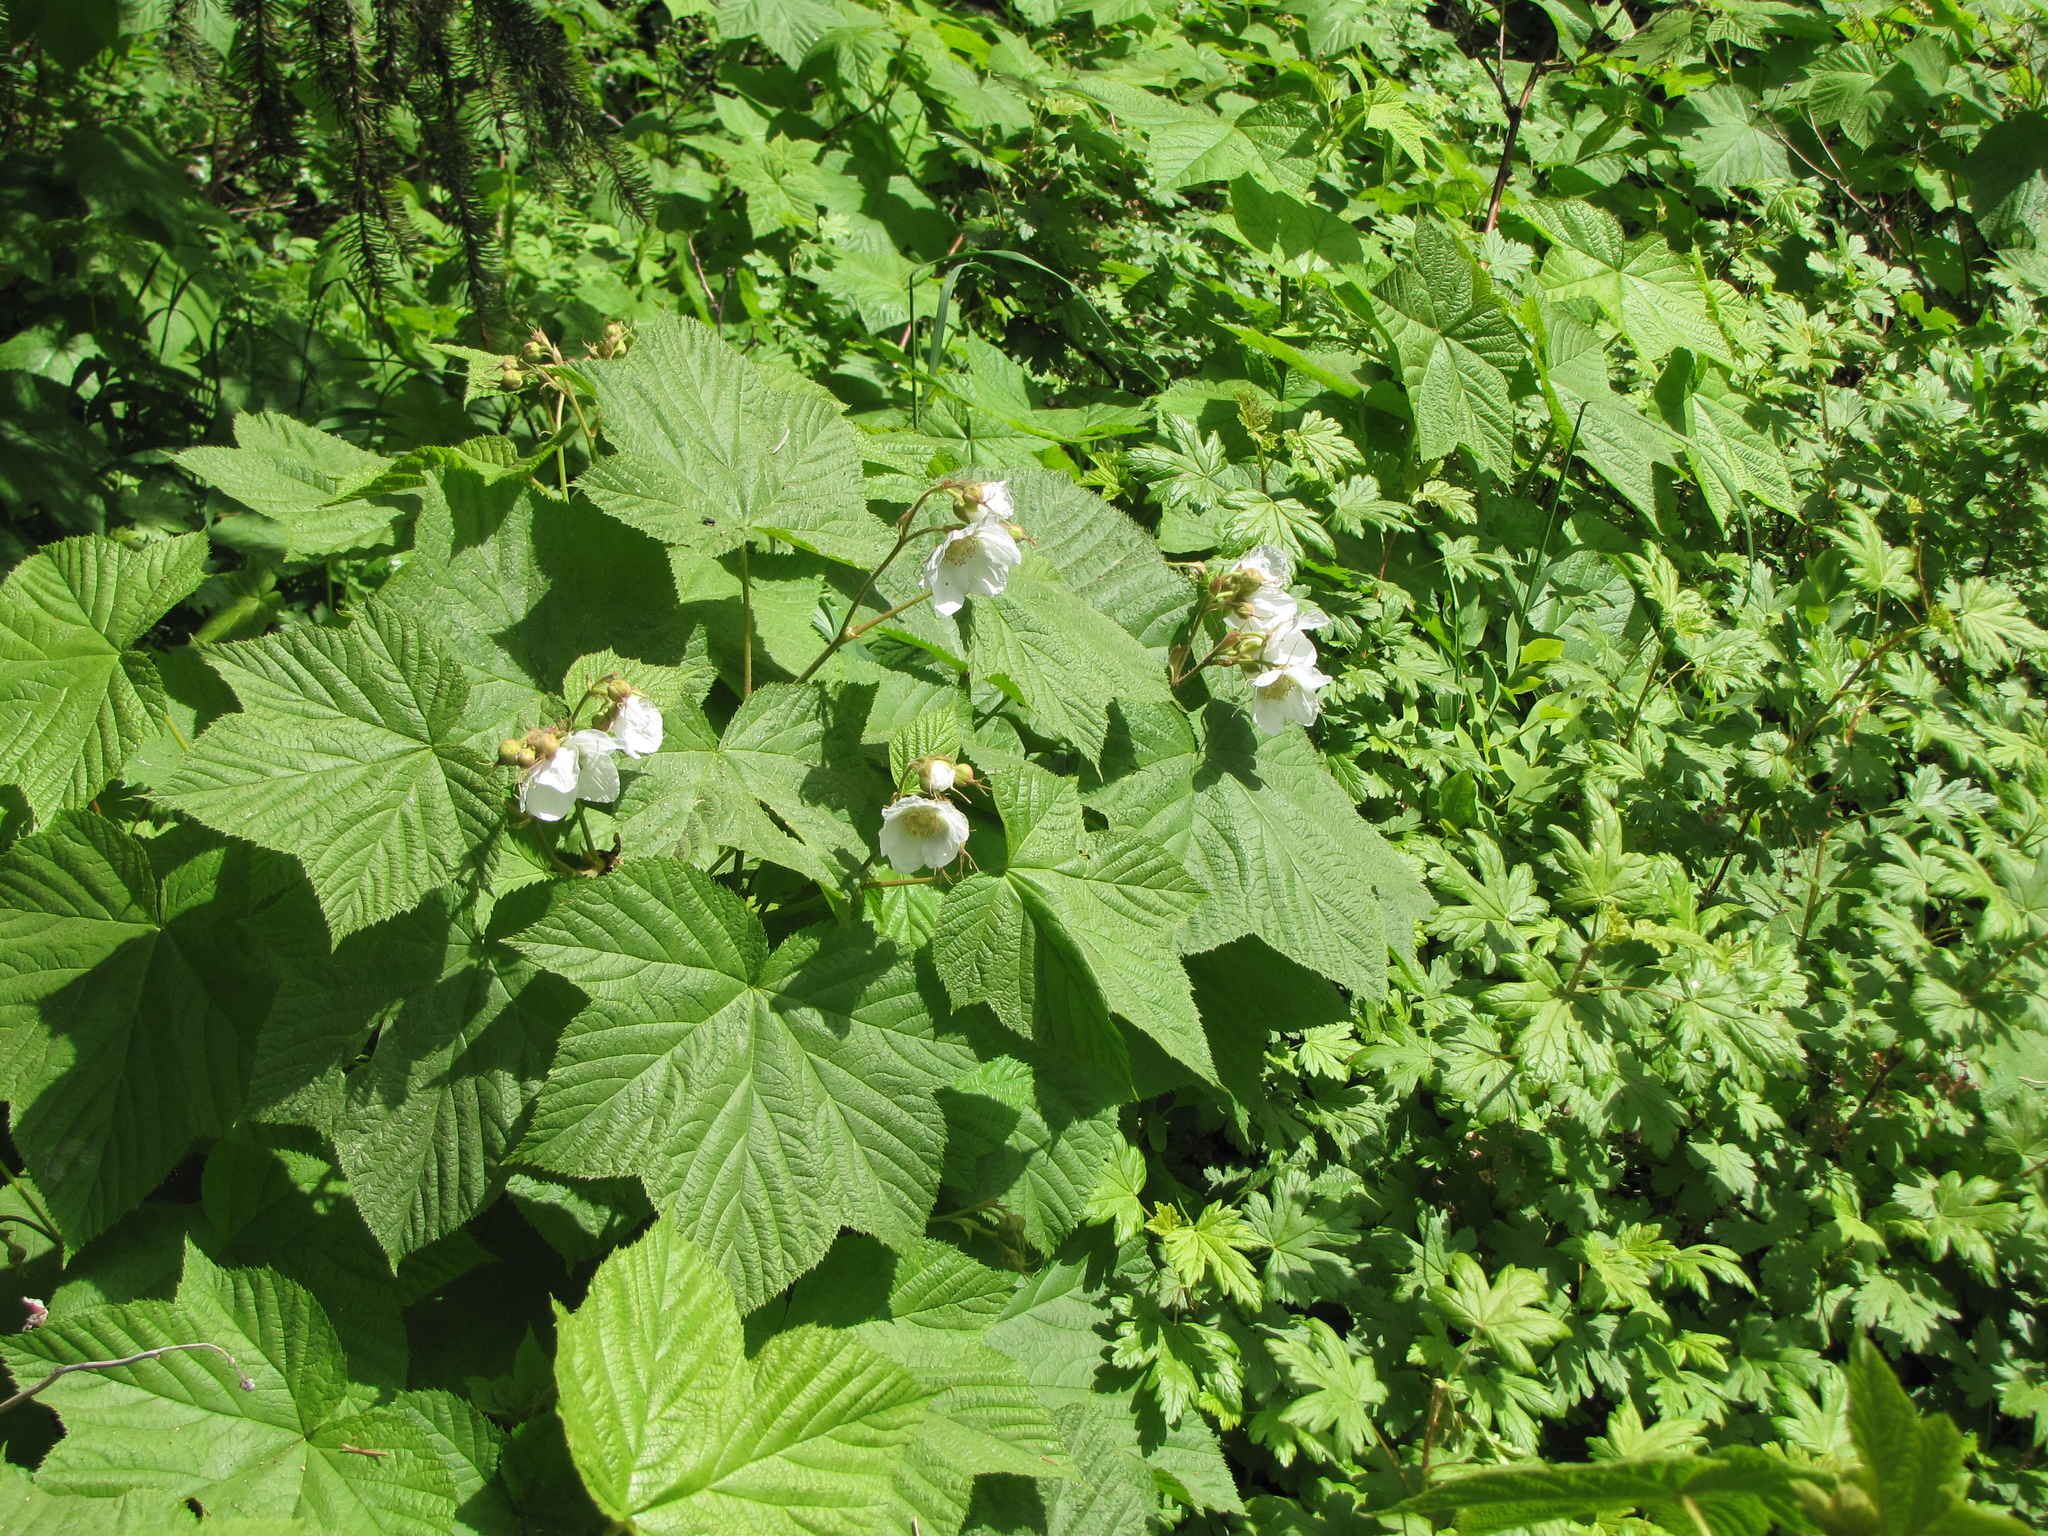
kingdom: Plantae
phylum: Tracheophyta
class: Magnoliopsida
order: Rosales
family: Rosaceae
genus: Rubus
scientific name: Rubus parviflorus
